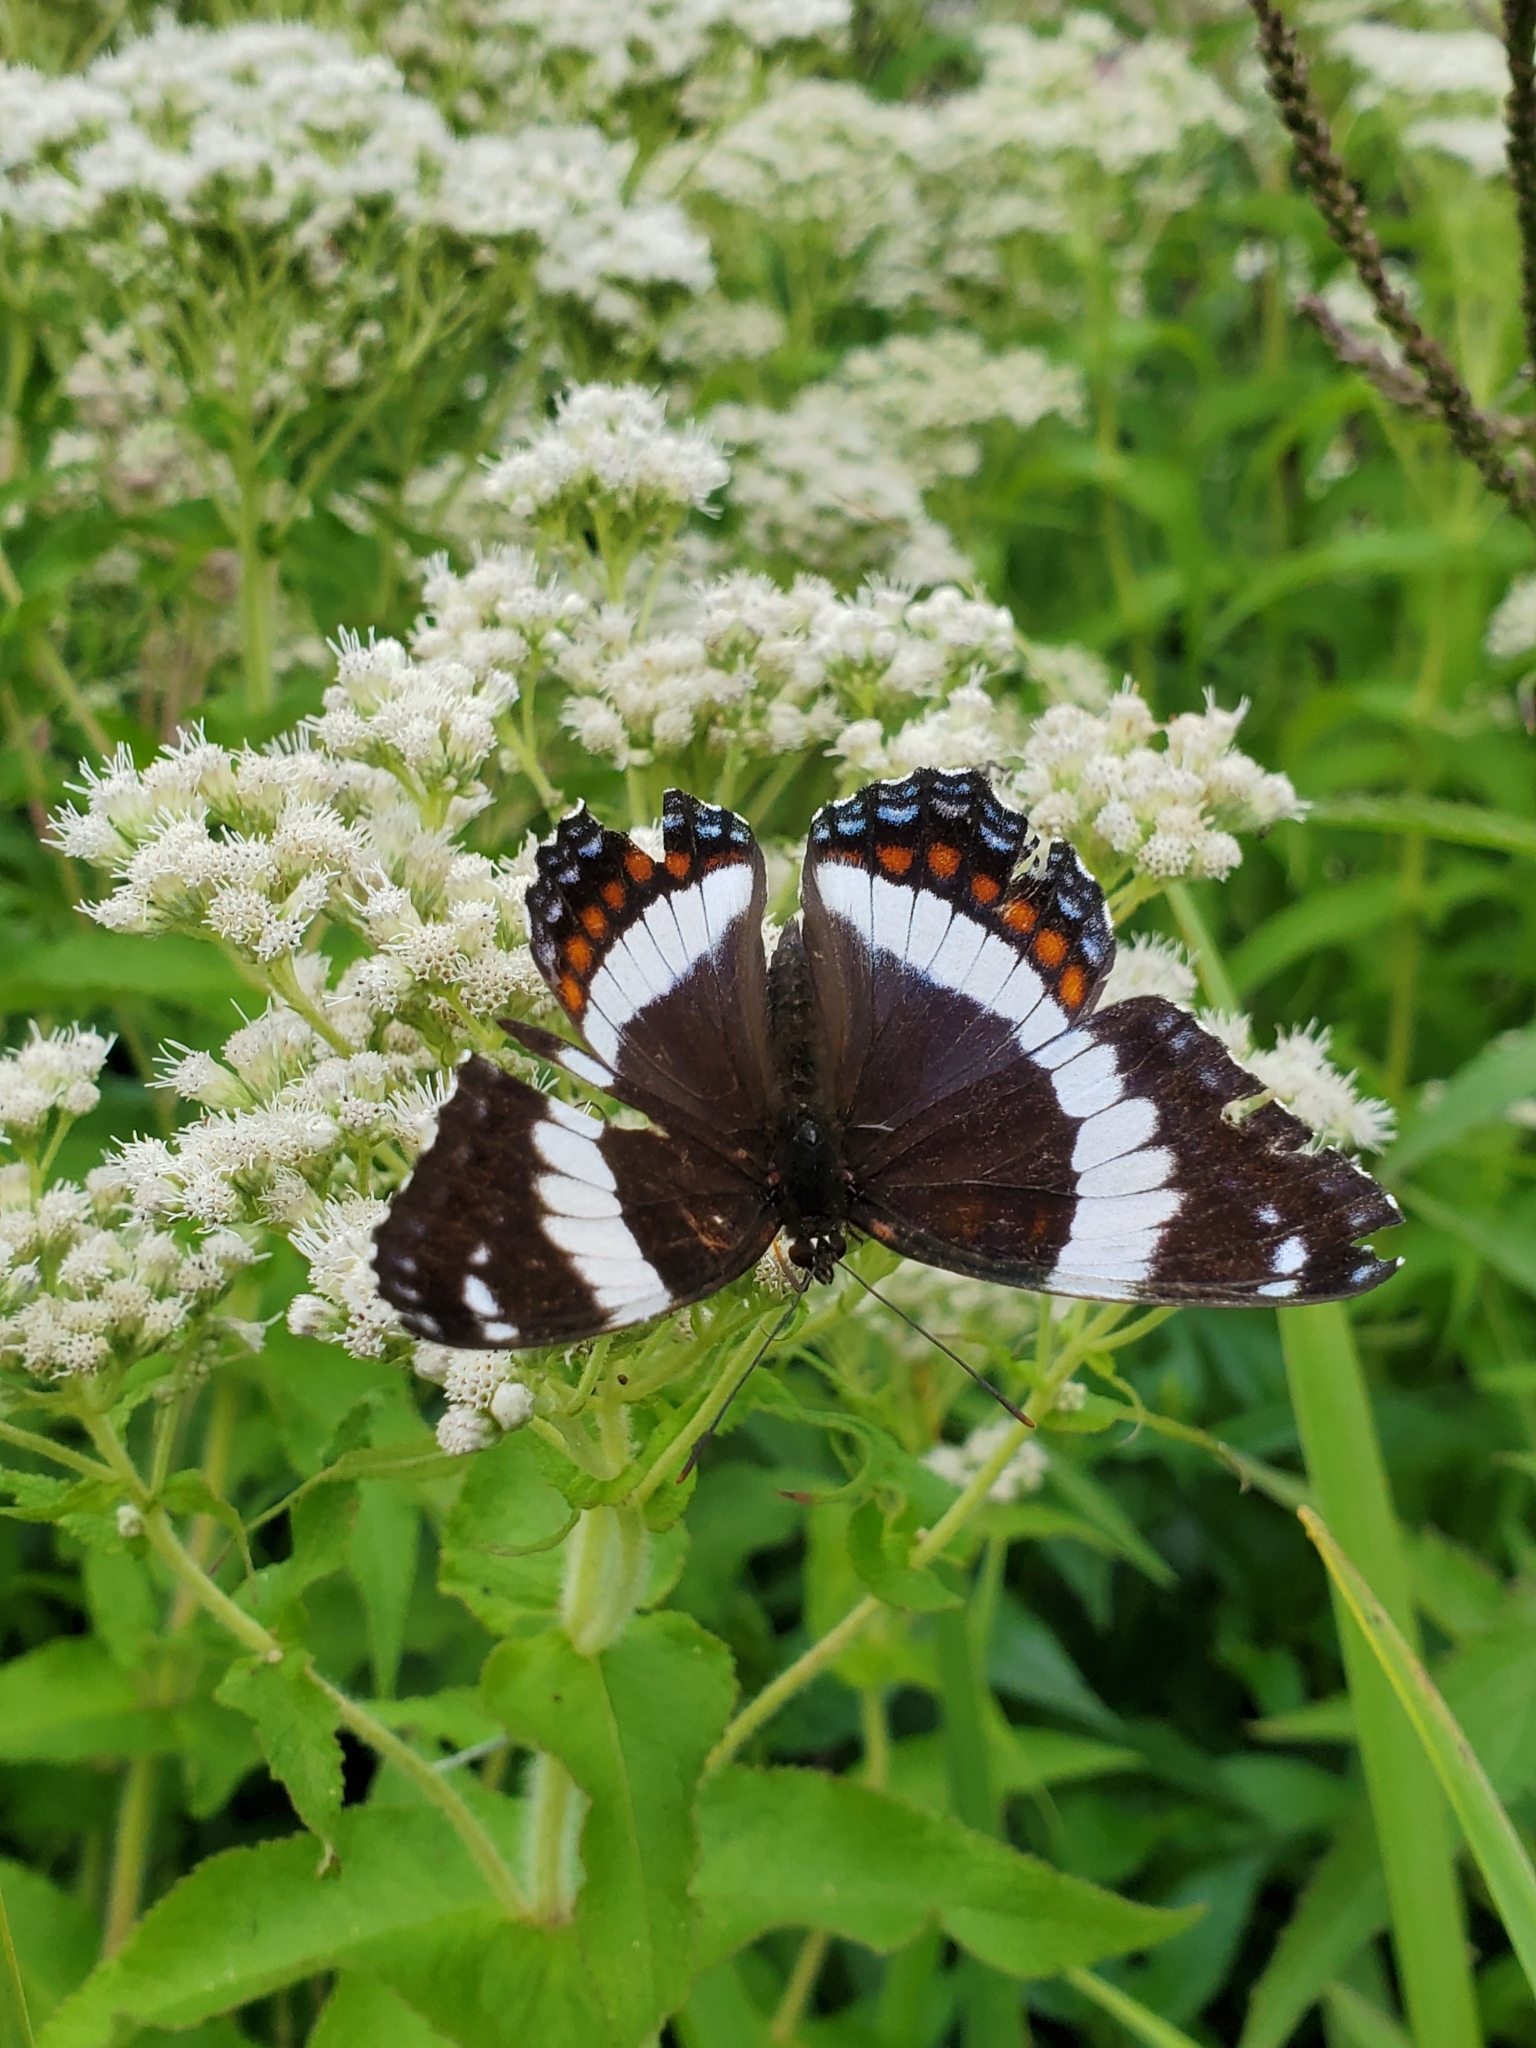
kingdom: Animalia
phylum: Arthropoda
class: Insecta
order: Lepidoptera
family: Nymphalidae
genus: Limenitis
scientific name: Limenitis arthemis
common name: Red-spotted admiral
